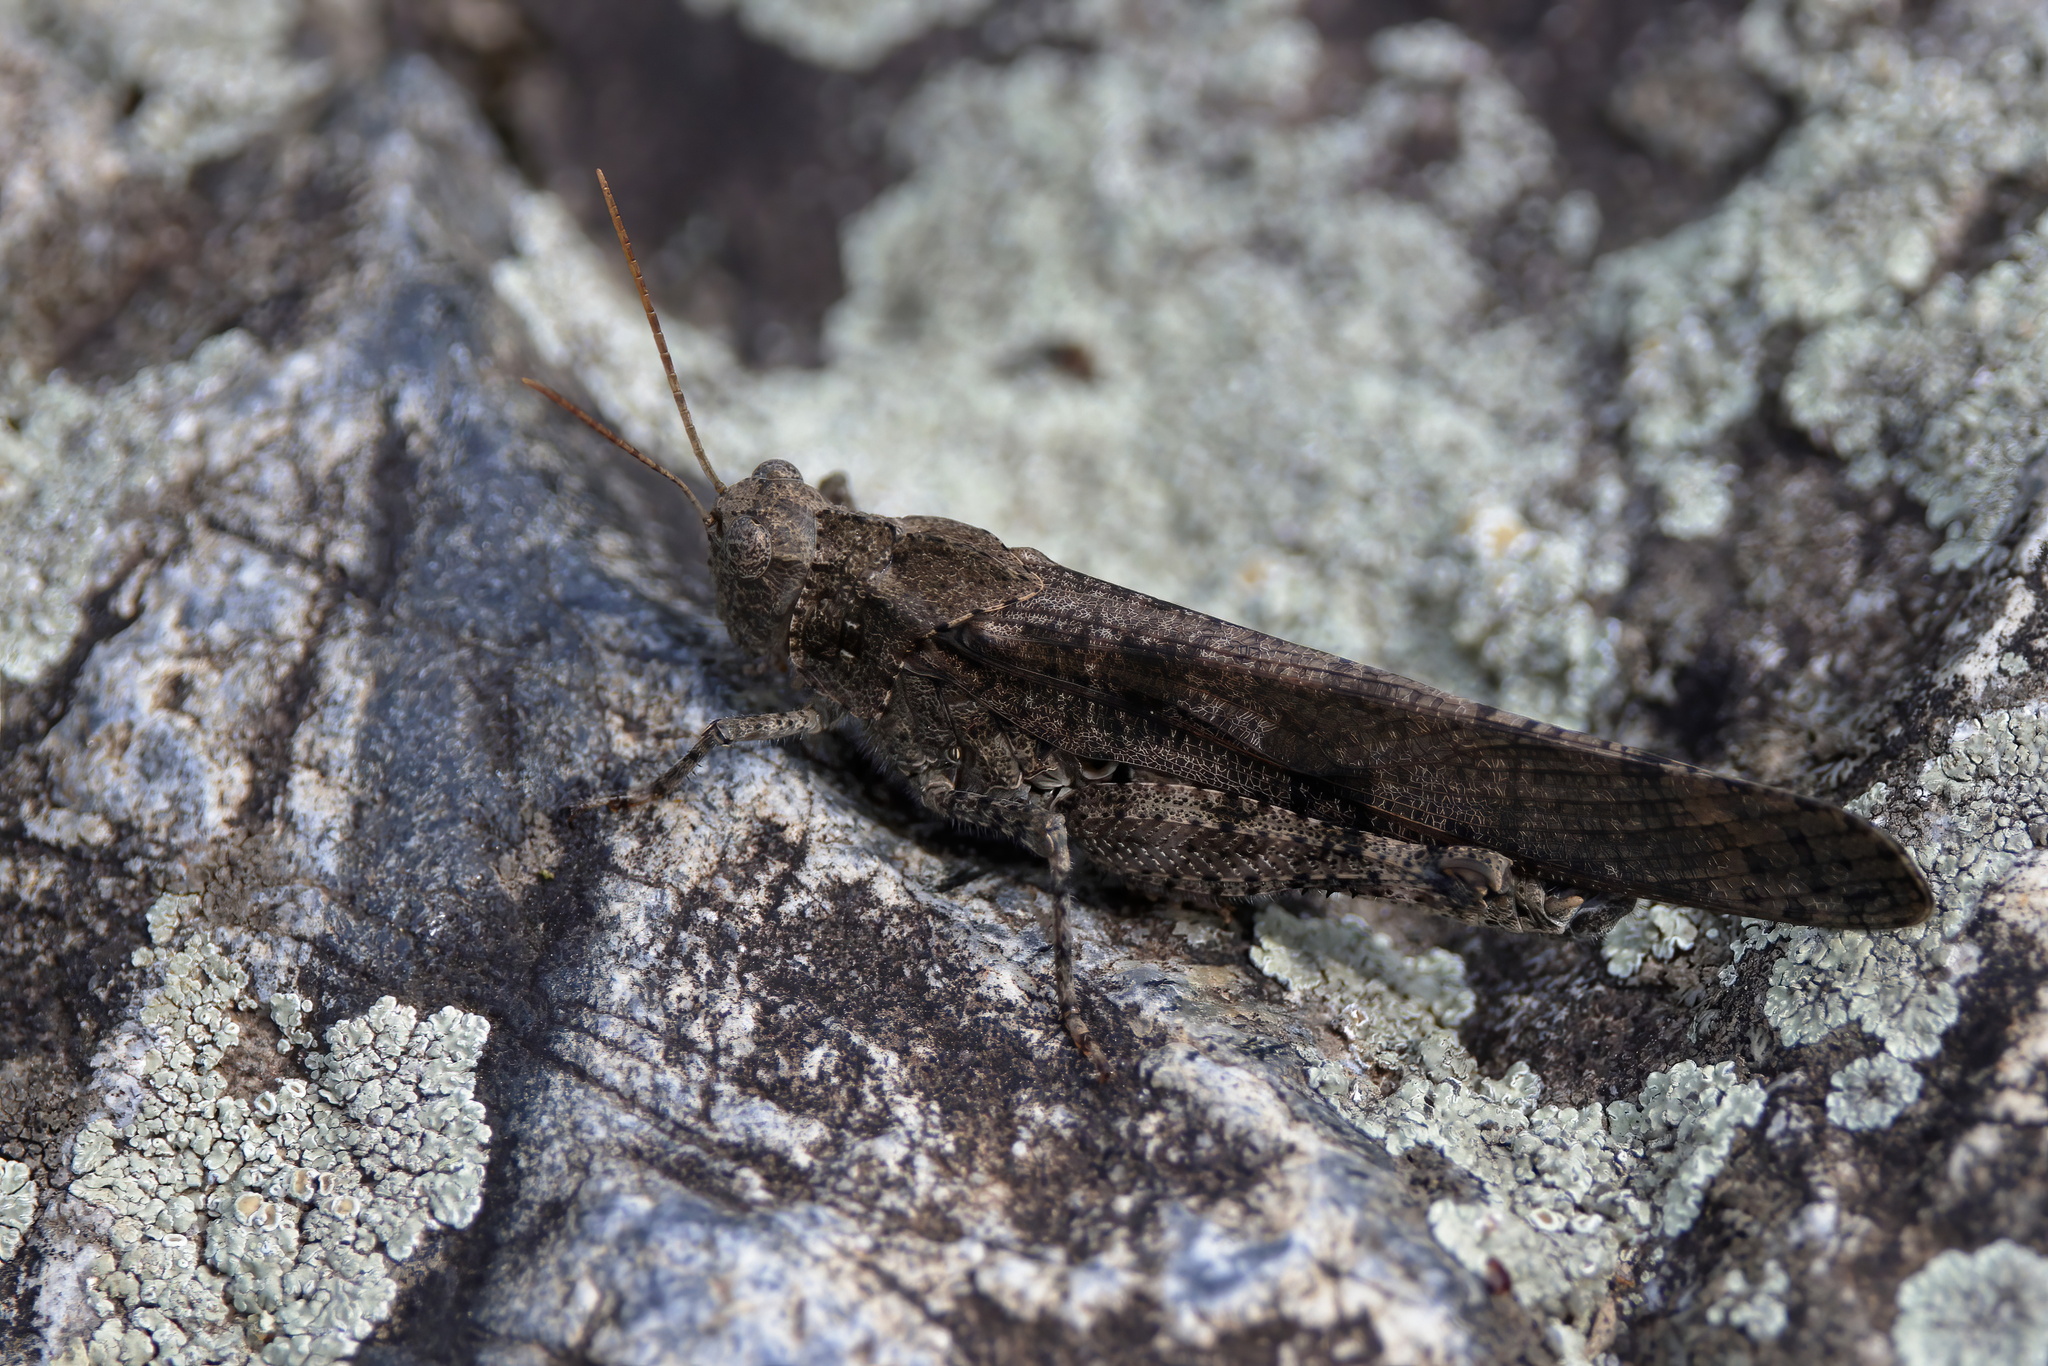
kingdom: Animalia
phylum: Arthropoda
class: Insecta
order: Orthoptera
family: Acrididae
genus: Dissosteira
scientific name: Dissosteira carolina
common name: Carolina grasshopper
